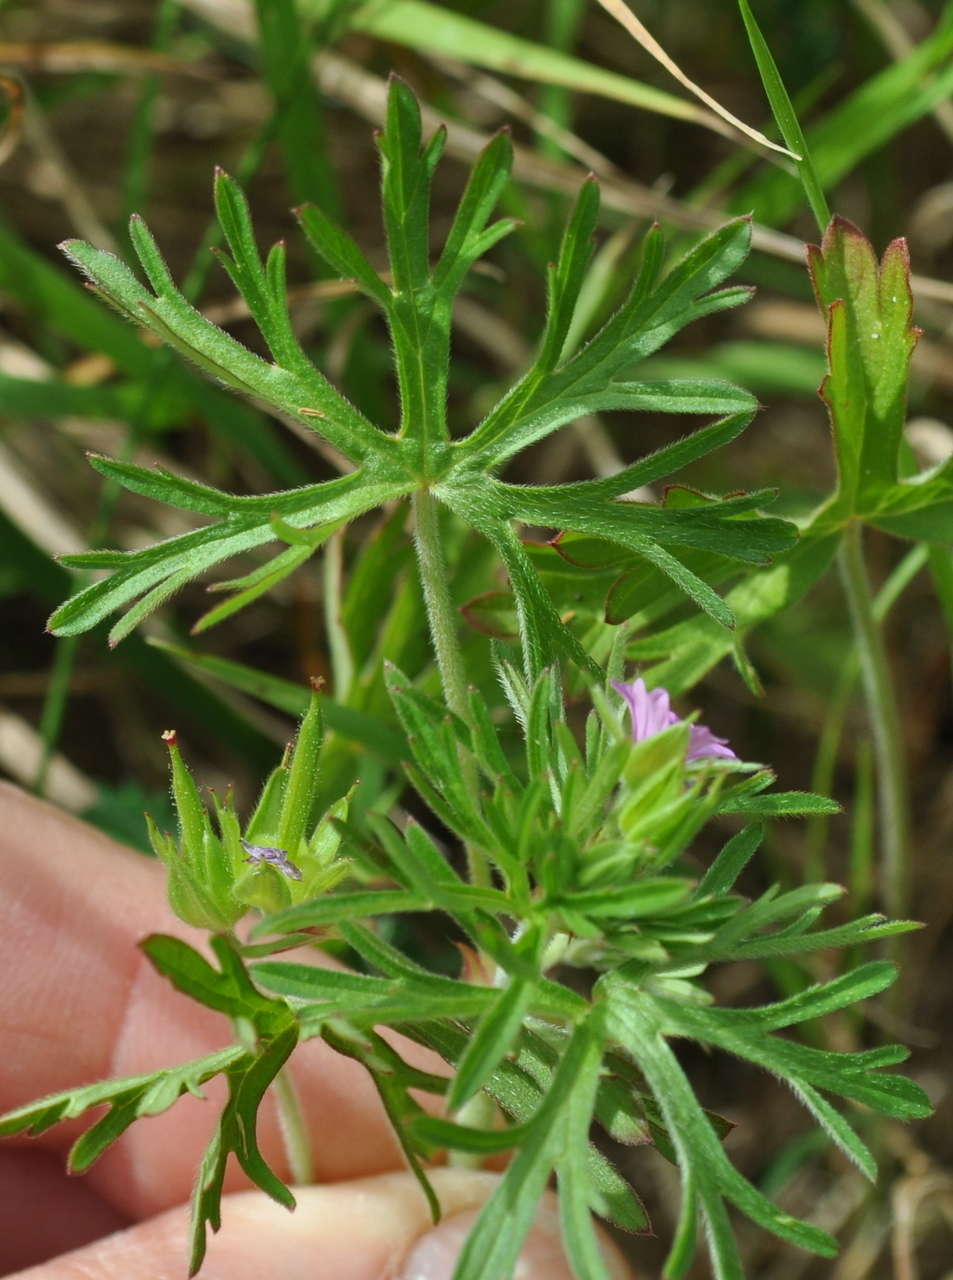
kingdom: Plantae
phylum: Tracheophyta
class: Magnoliopsida
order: Geraniales
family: Geraniaceae
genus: Geranium
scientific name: Geranium dissectum
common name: Cut-leaved crane's-bill
